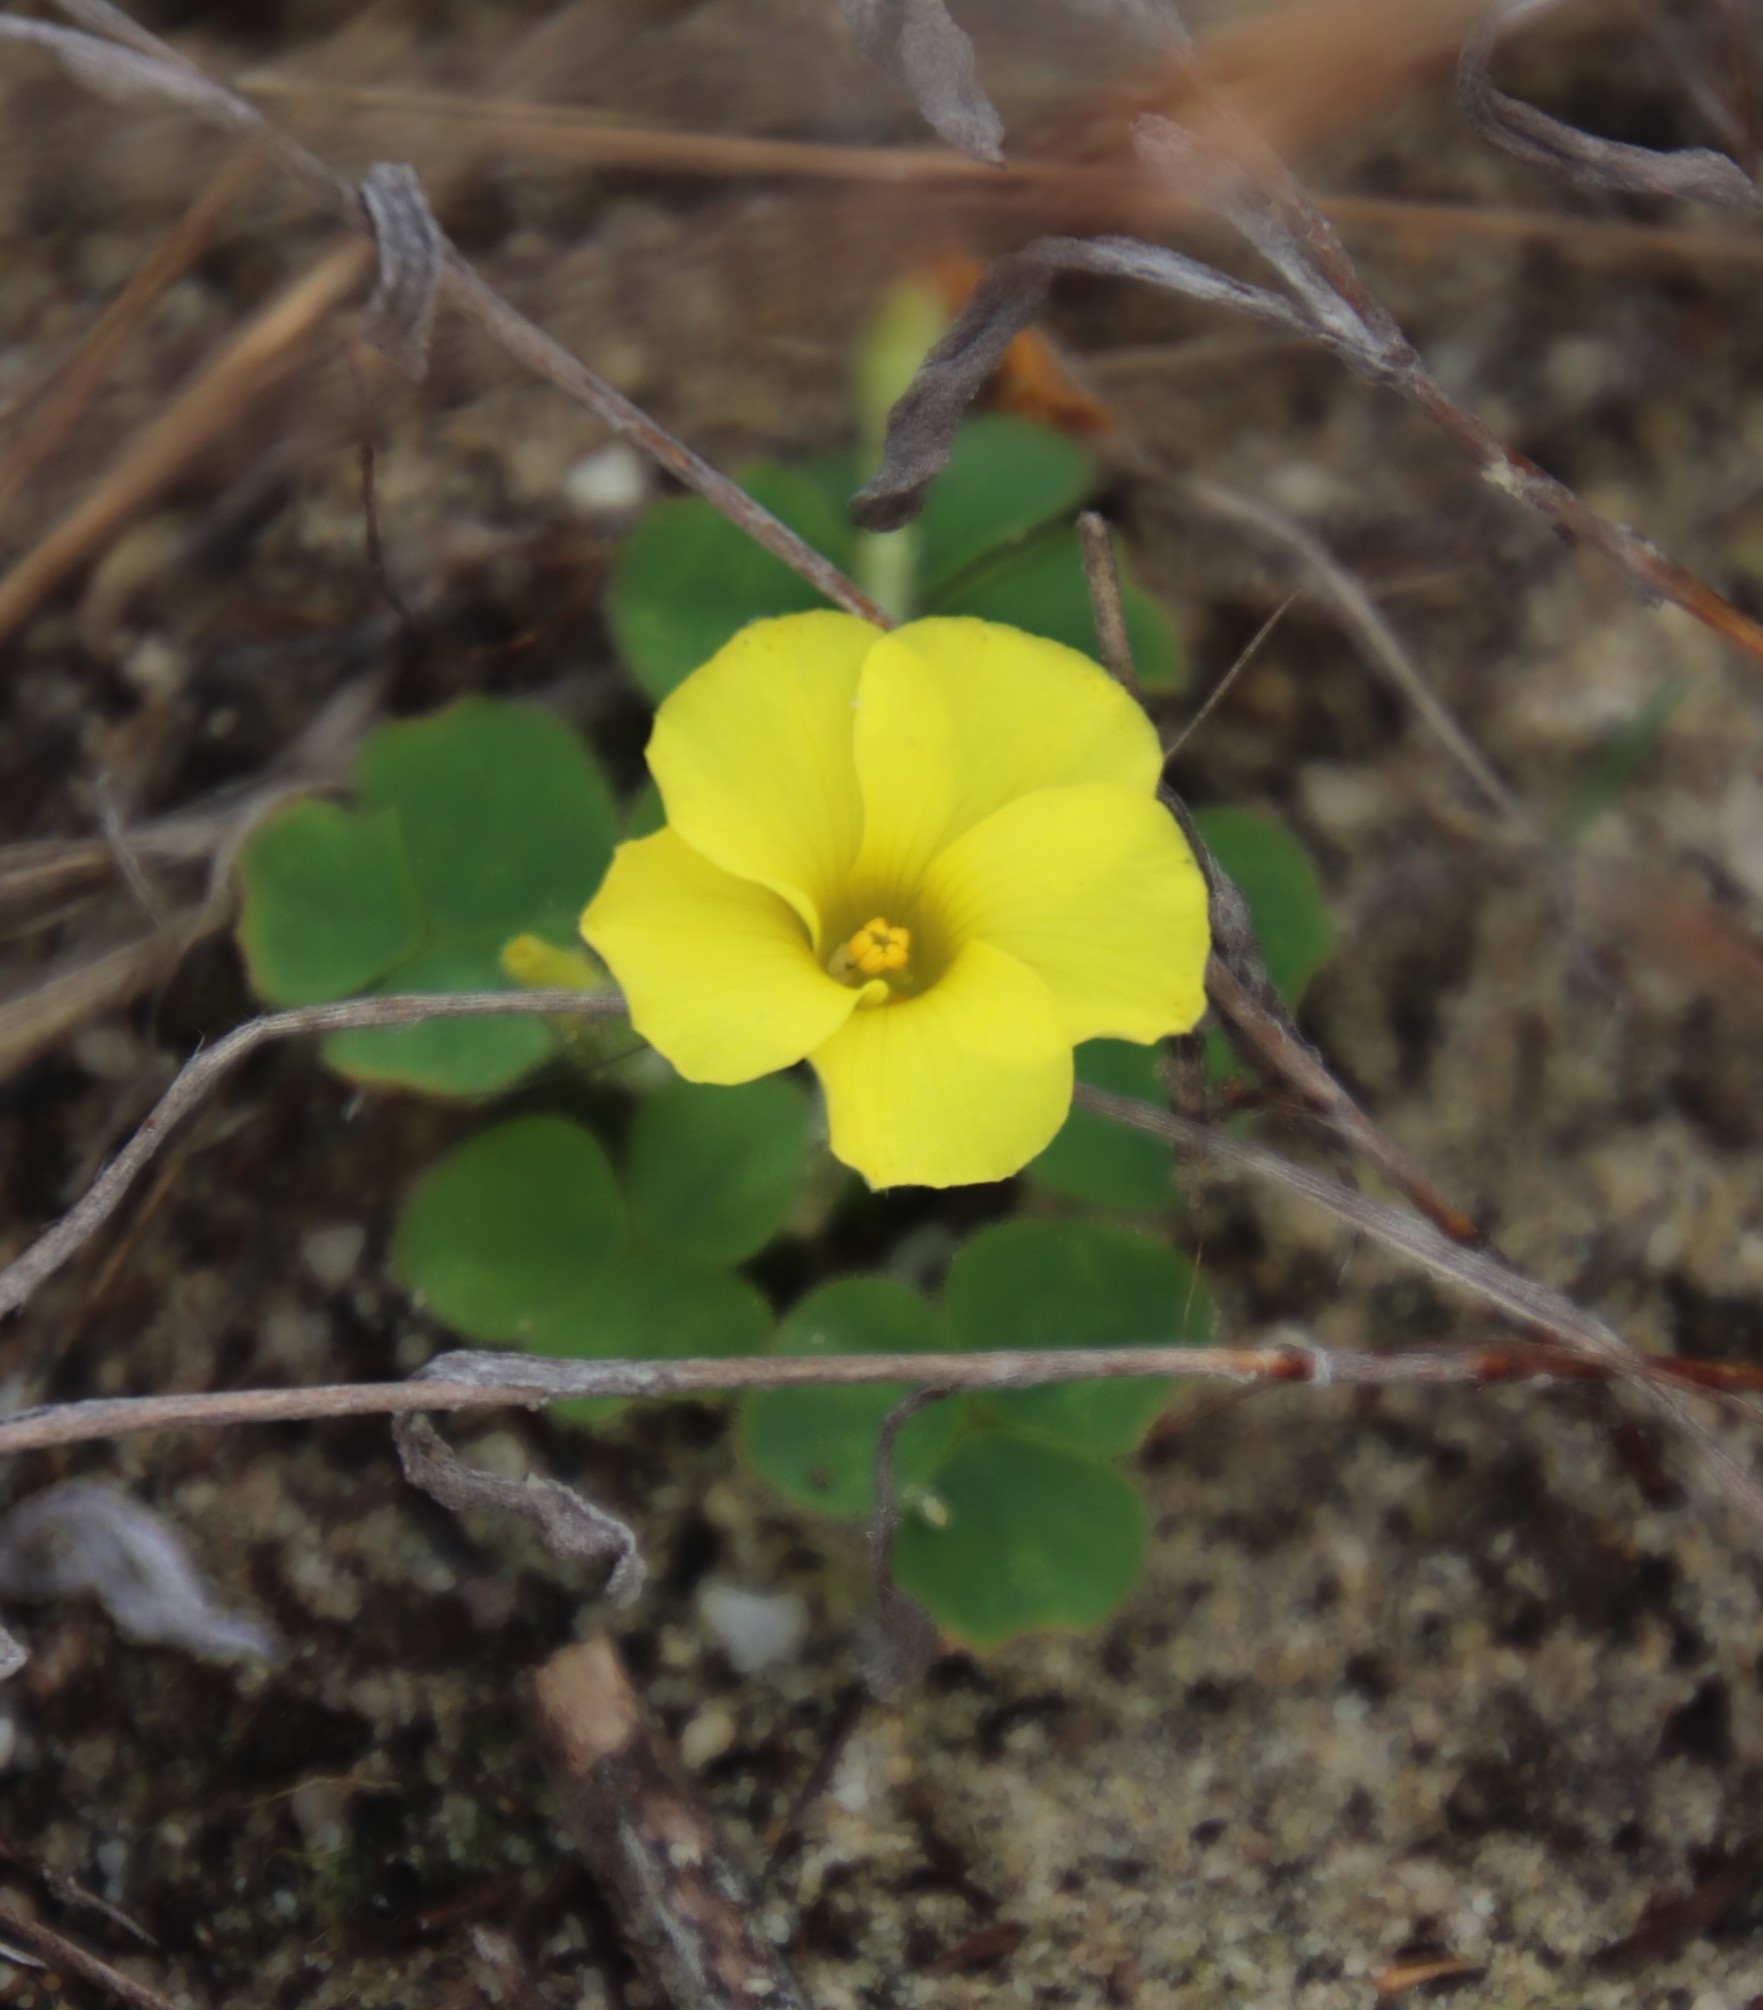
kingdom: Plantae
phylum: Tracheophyta
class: Magnoliopsida
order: Oxalidales
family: Oxalidaceae
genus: Oxalis
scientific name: Oxalis luteola
